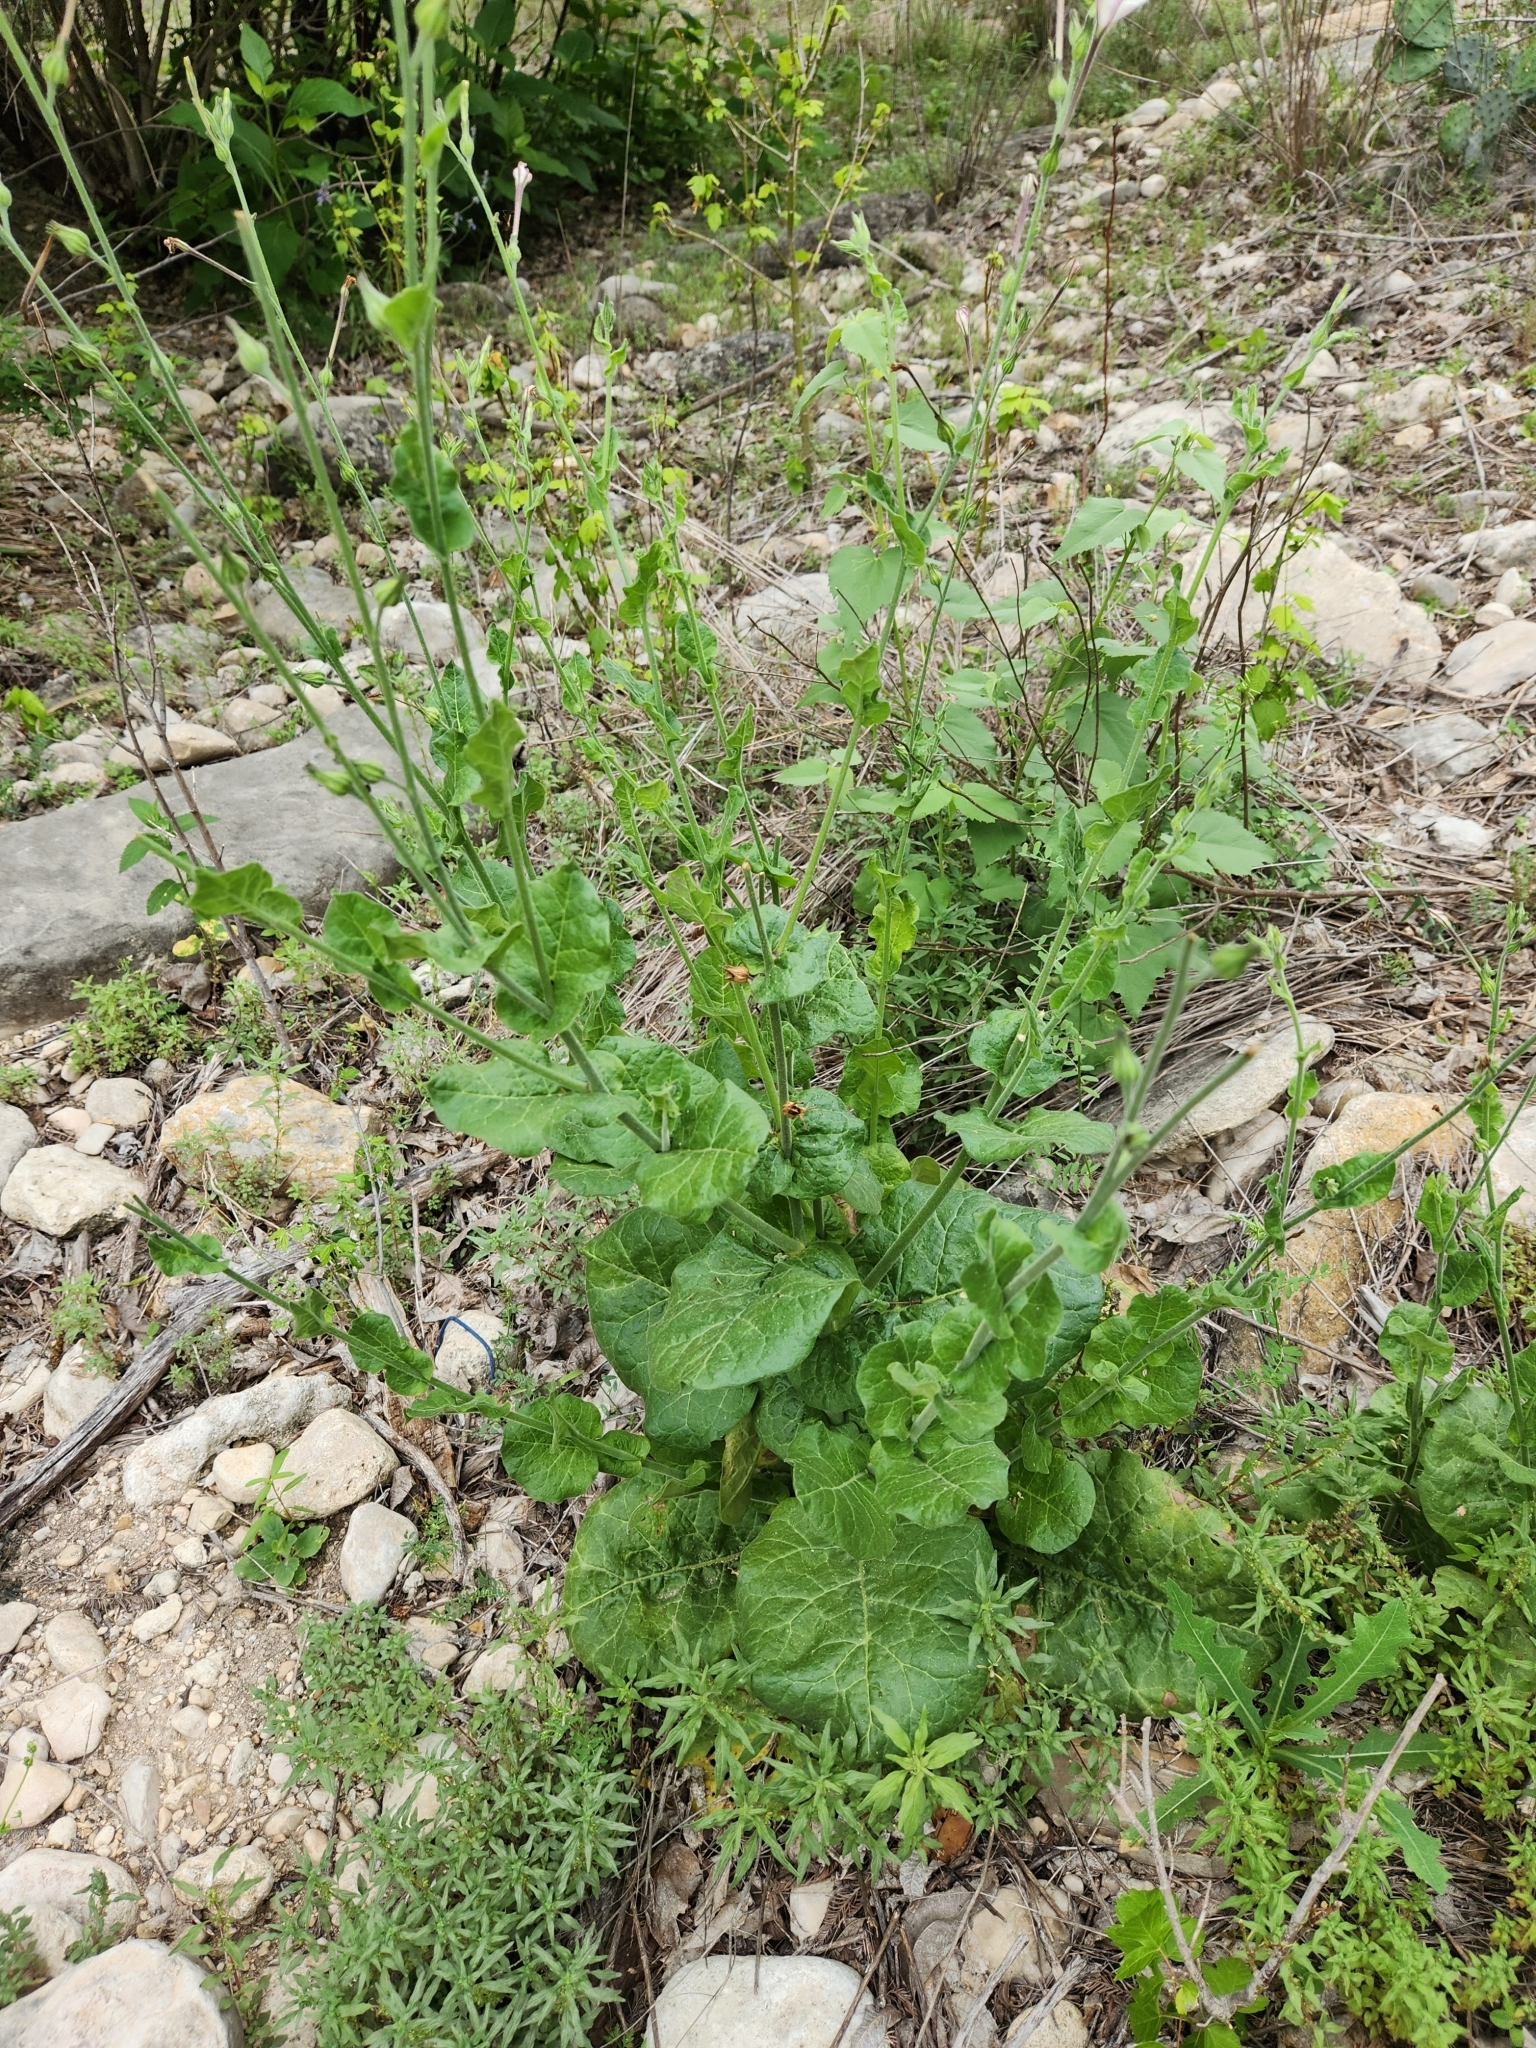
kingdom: Plantae
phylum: Tracheophyta
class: Magnoliopsida
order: Solanales
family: Solanaceae
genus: Nicotiana
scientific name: Nicotiana repanda
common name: Fiddle-leaf tobacco
